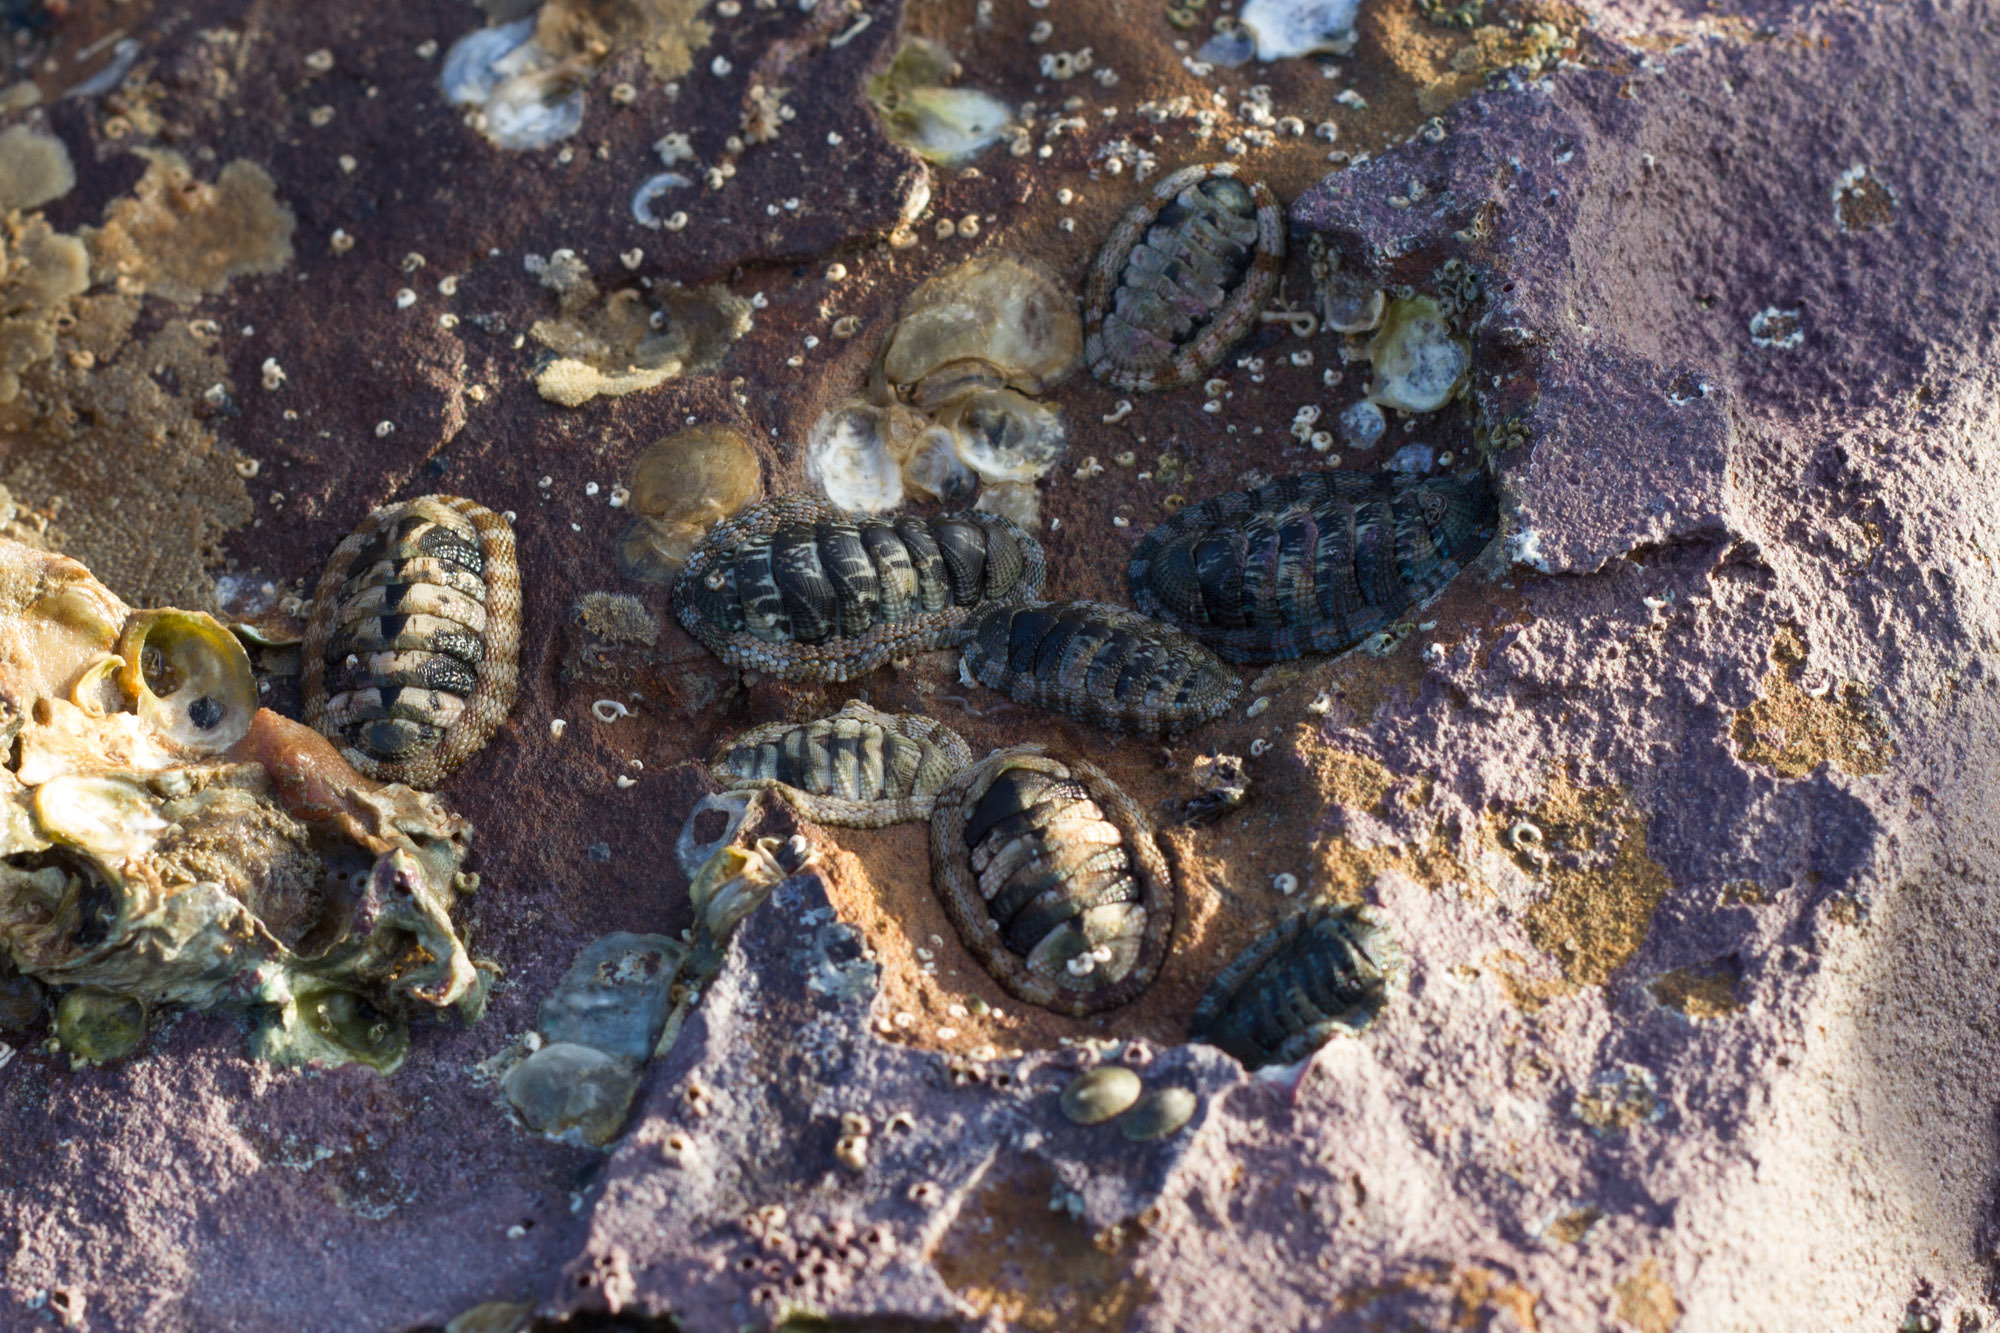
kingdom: Animalia
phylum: Mollusca
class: Polyplacophora
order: Chitonida
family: Chitonidae
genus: Sypharochiton
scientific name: Sypharochiton
